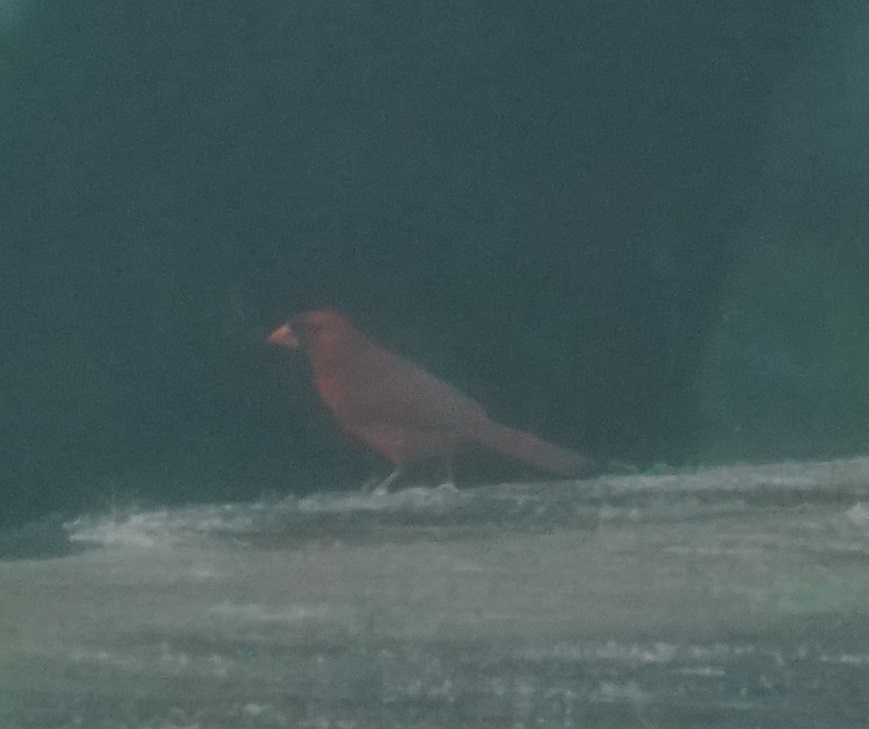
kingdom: Animalia
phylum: Chordata
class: Aves
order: Passeriformes
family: Cardinalidae
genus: Cardinalis
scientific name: Cardinalis cardinalis
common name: Northern cardinal
